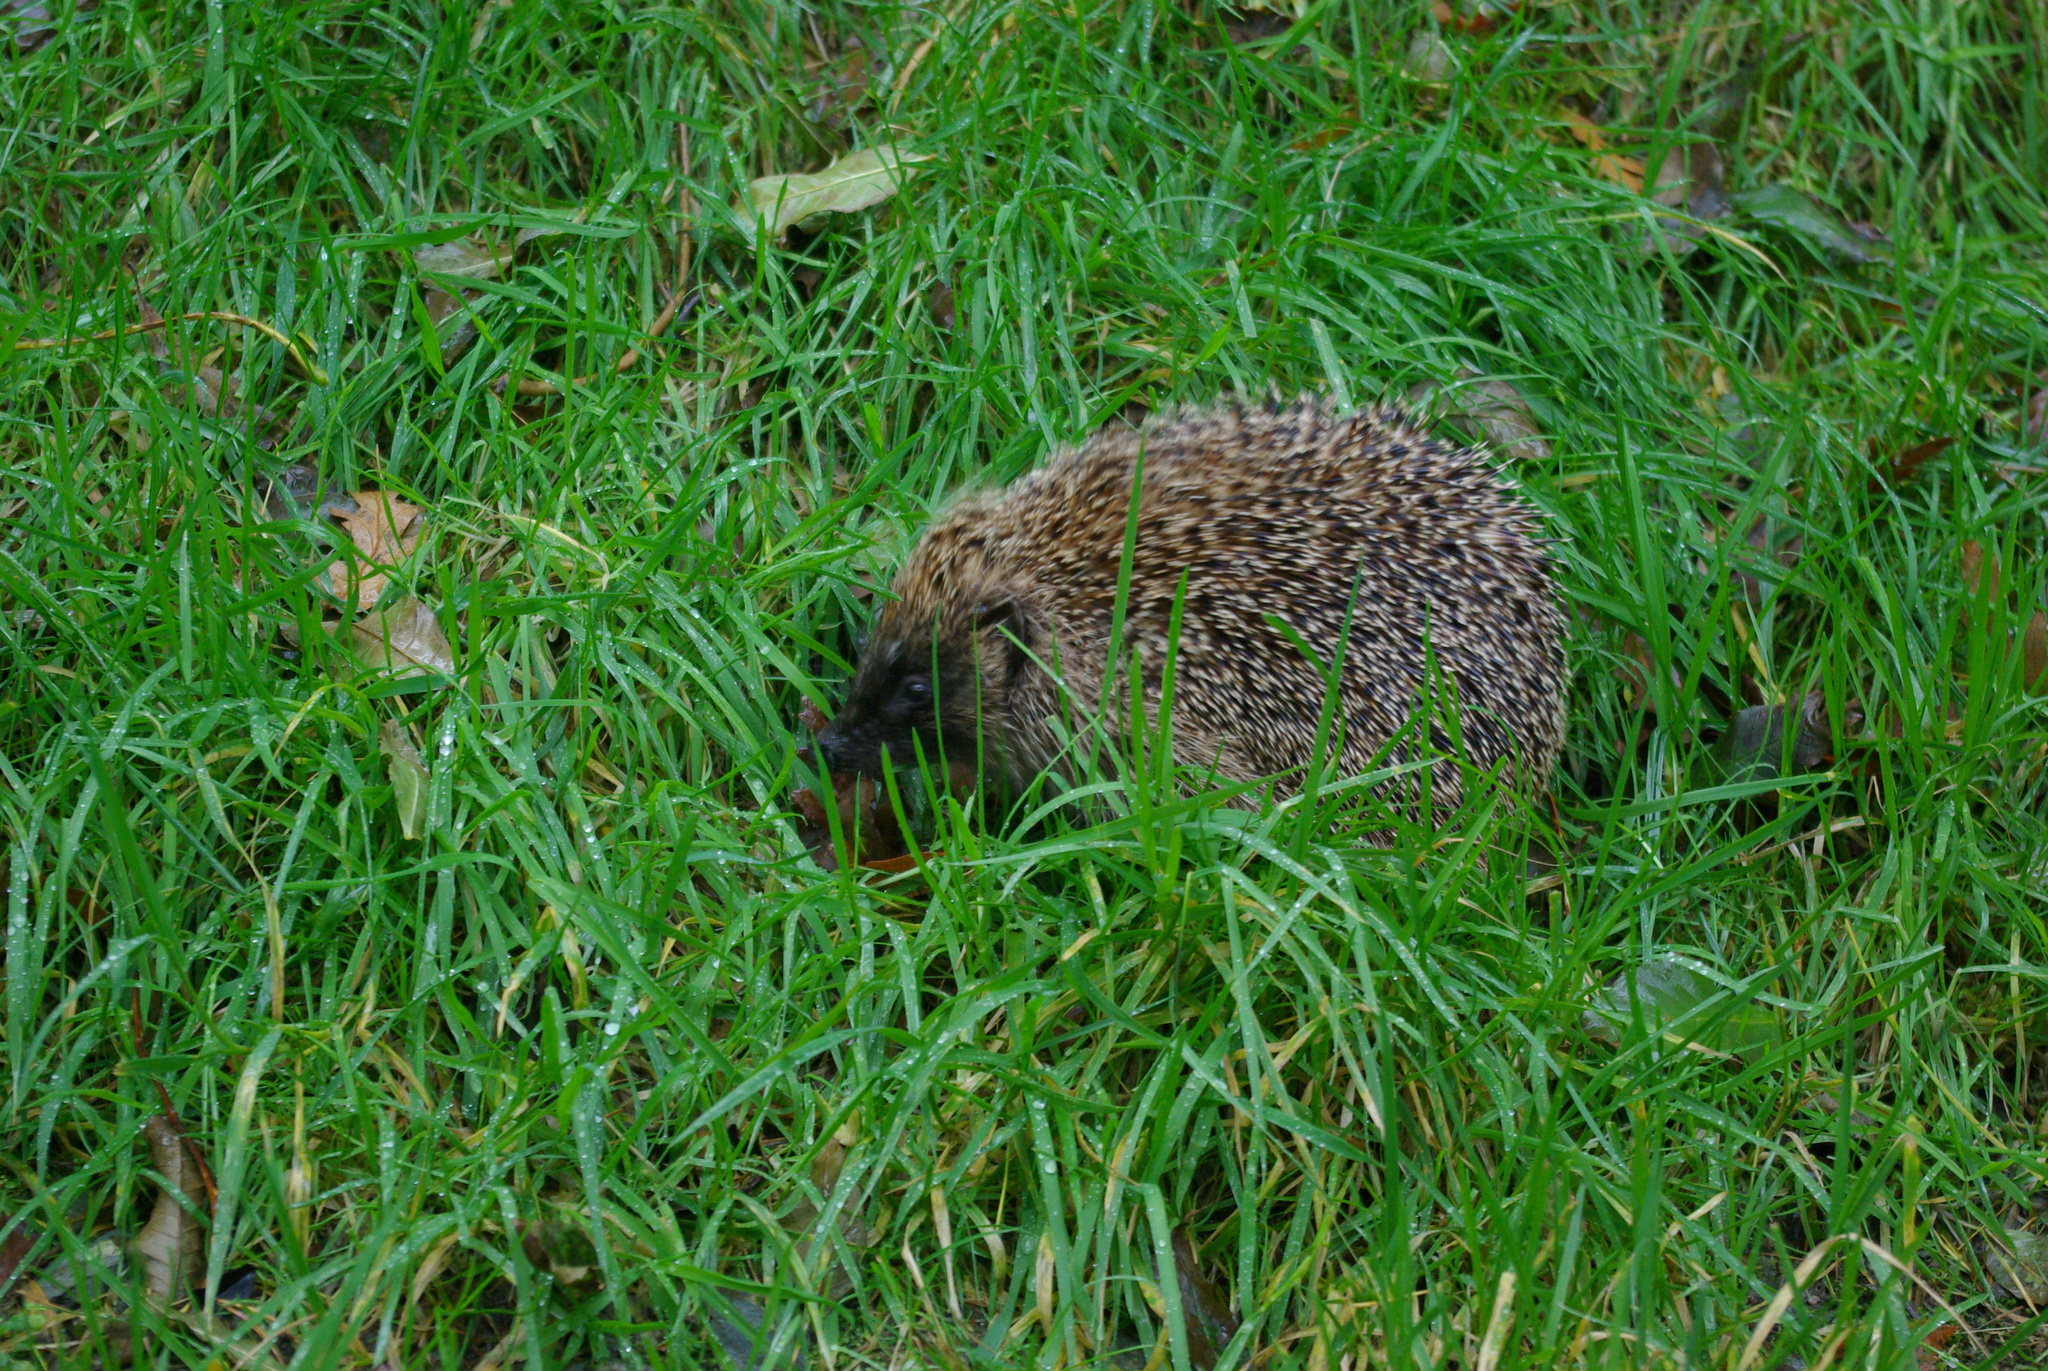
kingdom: Animalia
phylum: Chordata
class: Mammalia
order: Erinaceomorpha
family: Erinaceidae
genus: Erinaceus
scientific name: Erinaceus europaeus
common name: West european hedgehog
